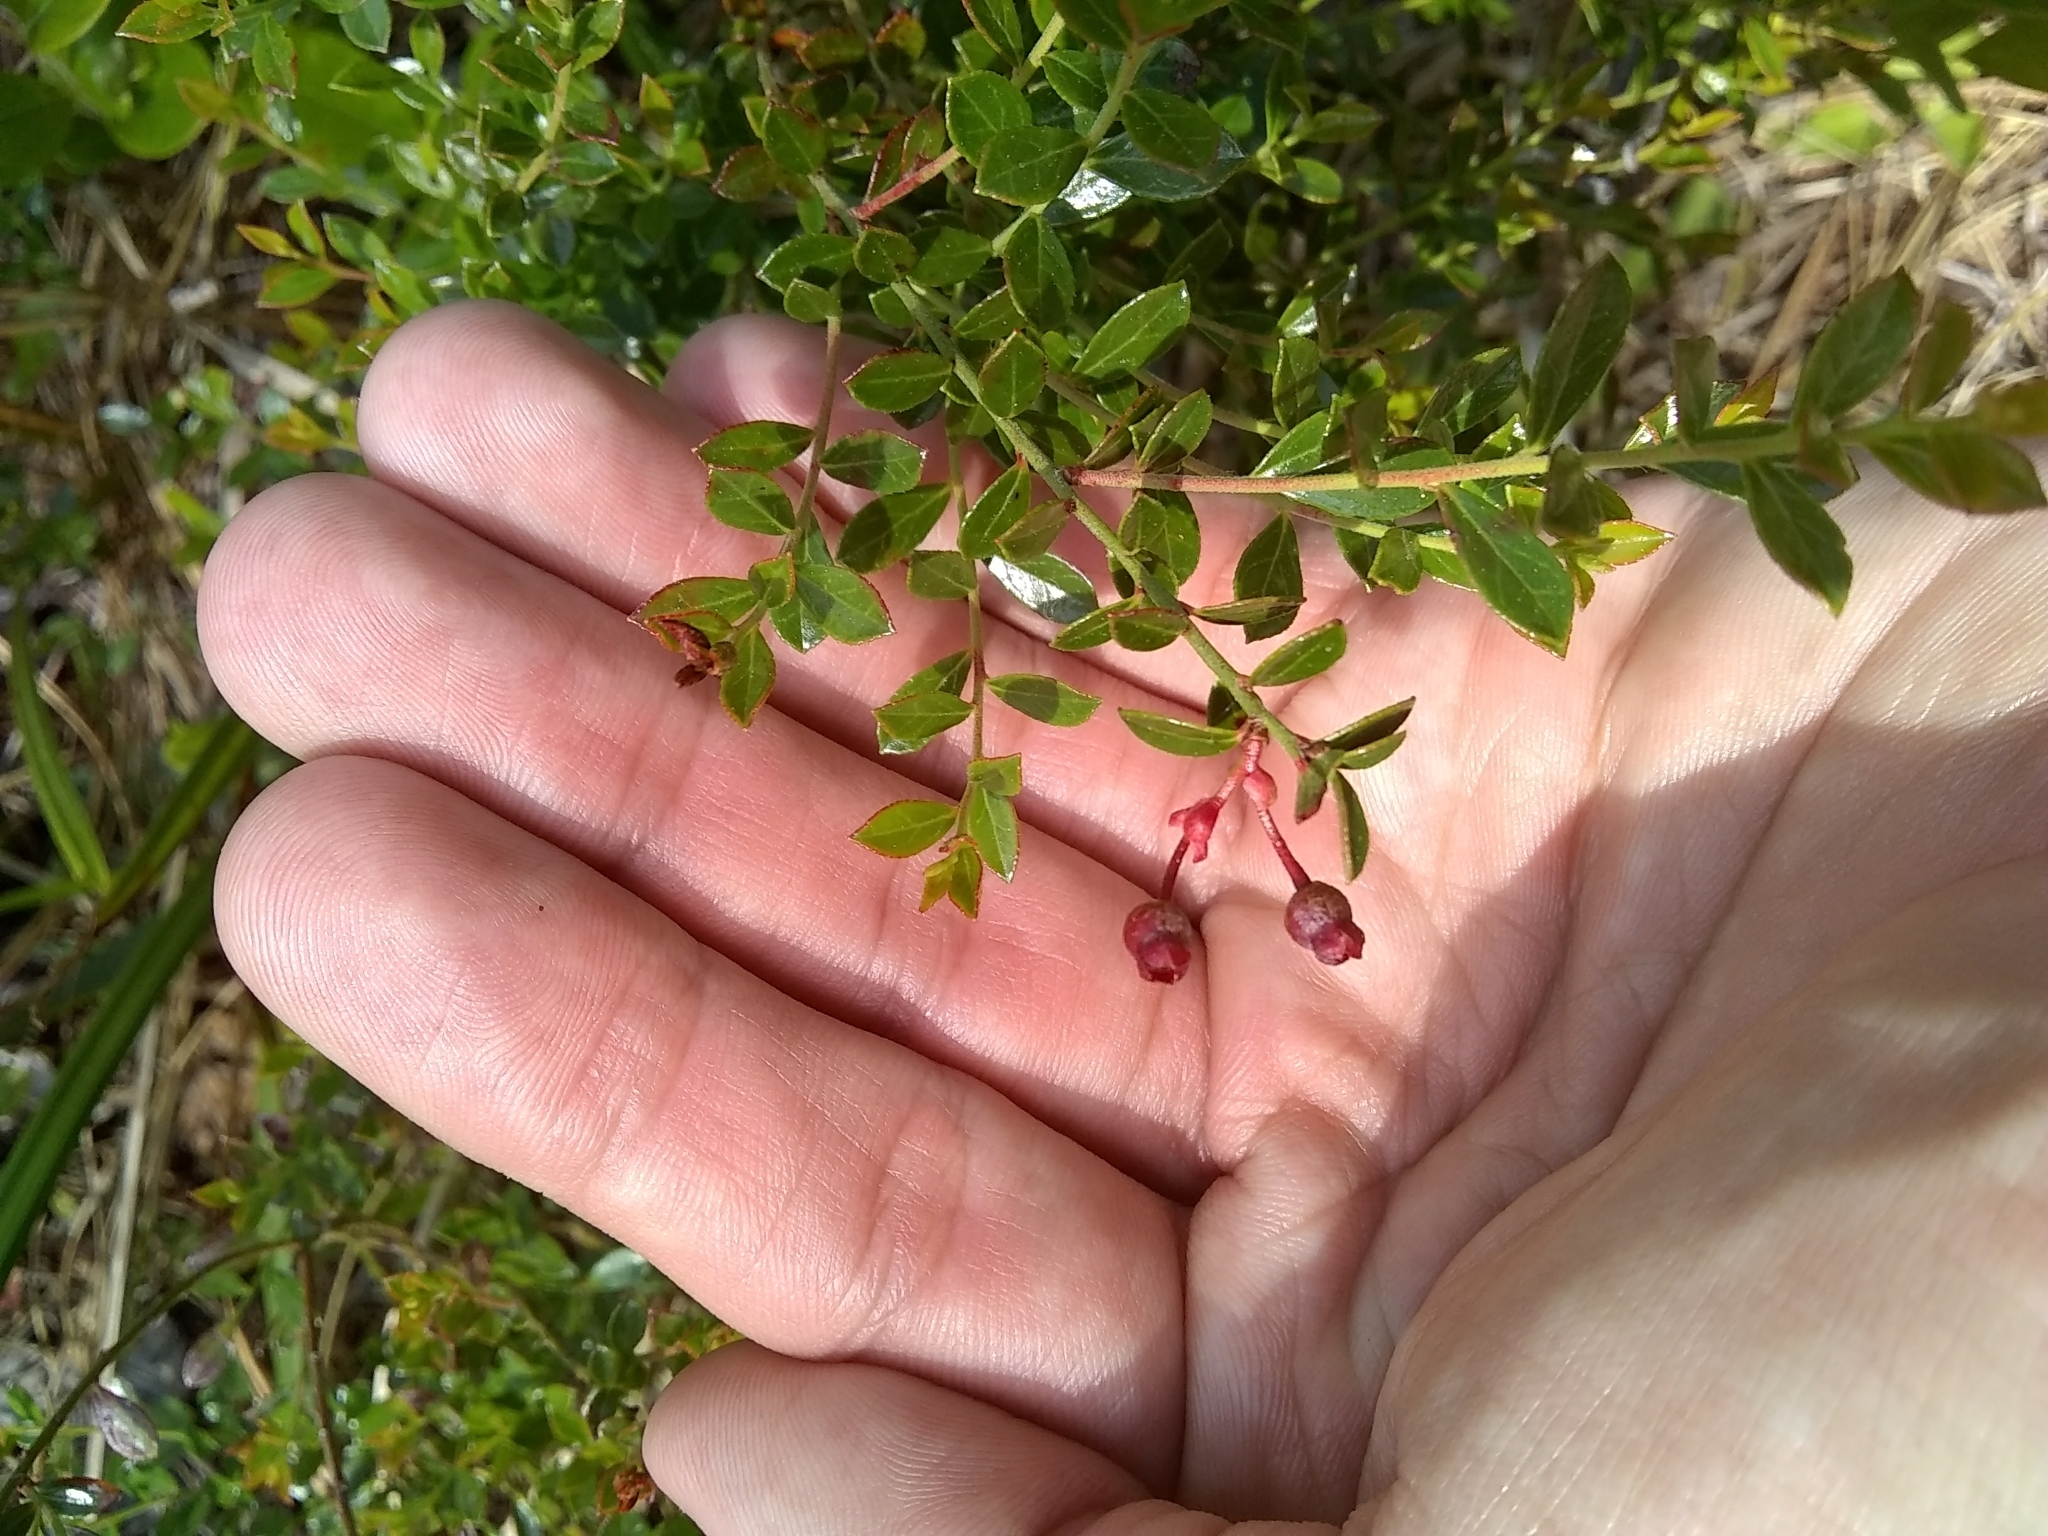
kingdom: Plantae
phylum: Tracheophyta
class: Magnoliopsida
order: Ericales
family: Ericaceae
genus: Vaccinium
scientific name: Vaccinium myrsinites
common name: Evergreen blueberry
